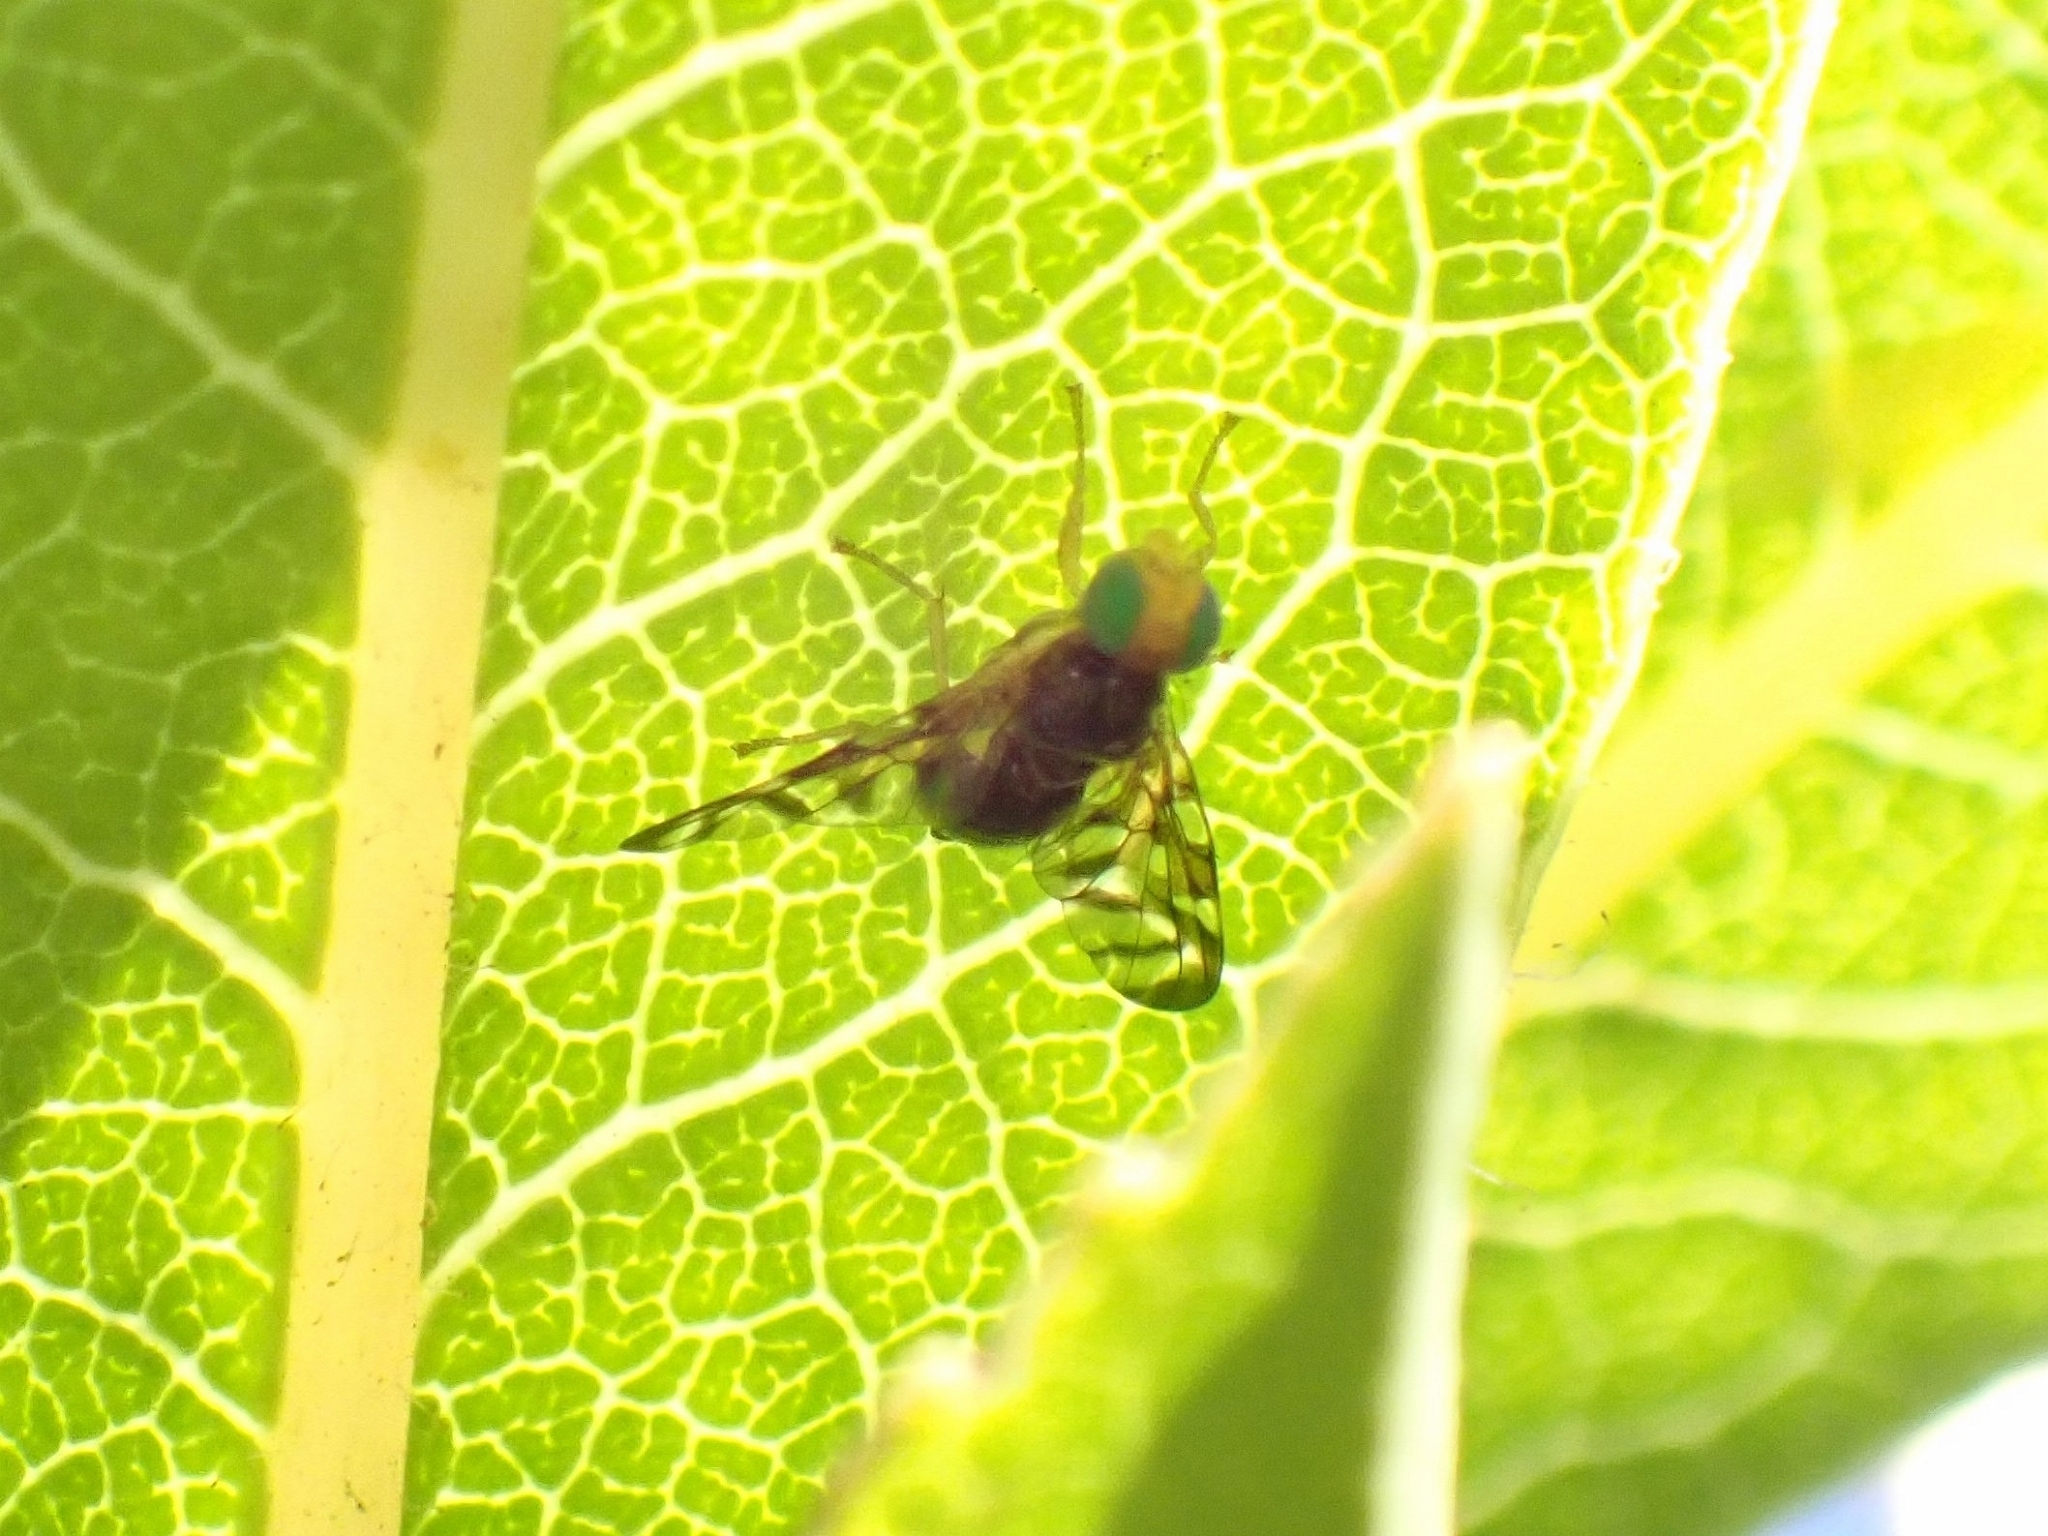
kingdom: Animalia
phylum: Arthropoda
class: Insecta
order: Diptera
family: Tephritidae
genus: Euleia
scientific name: Euleia separata
